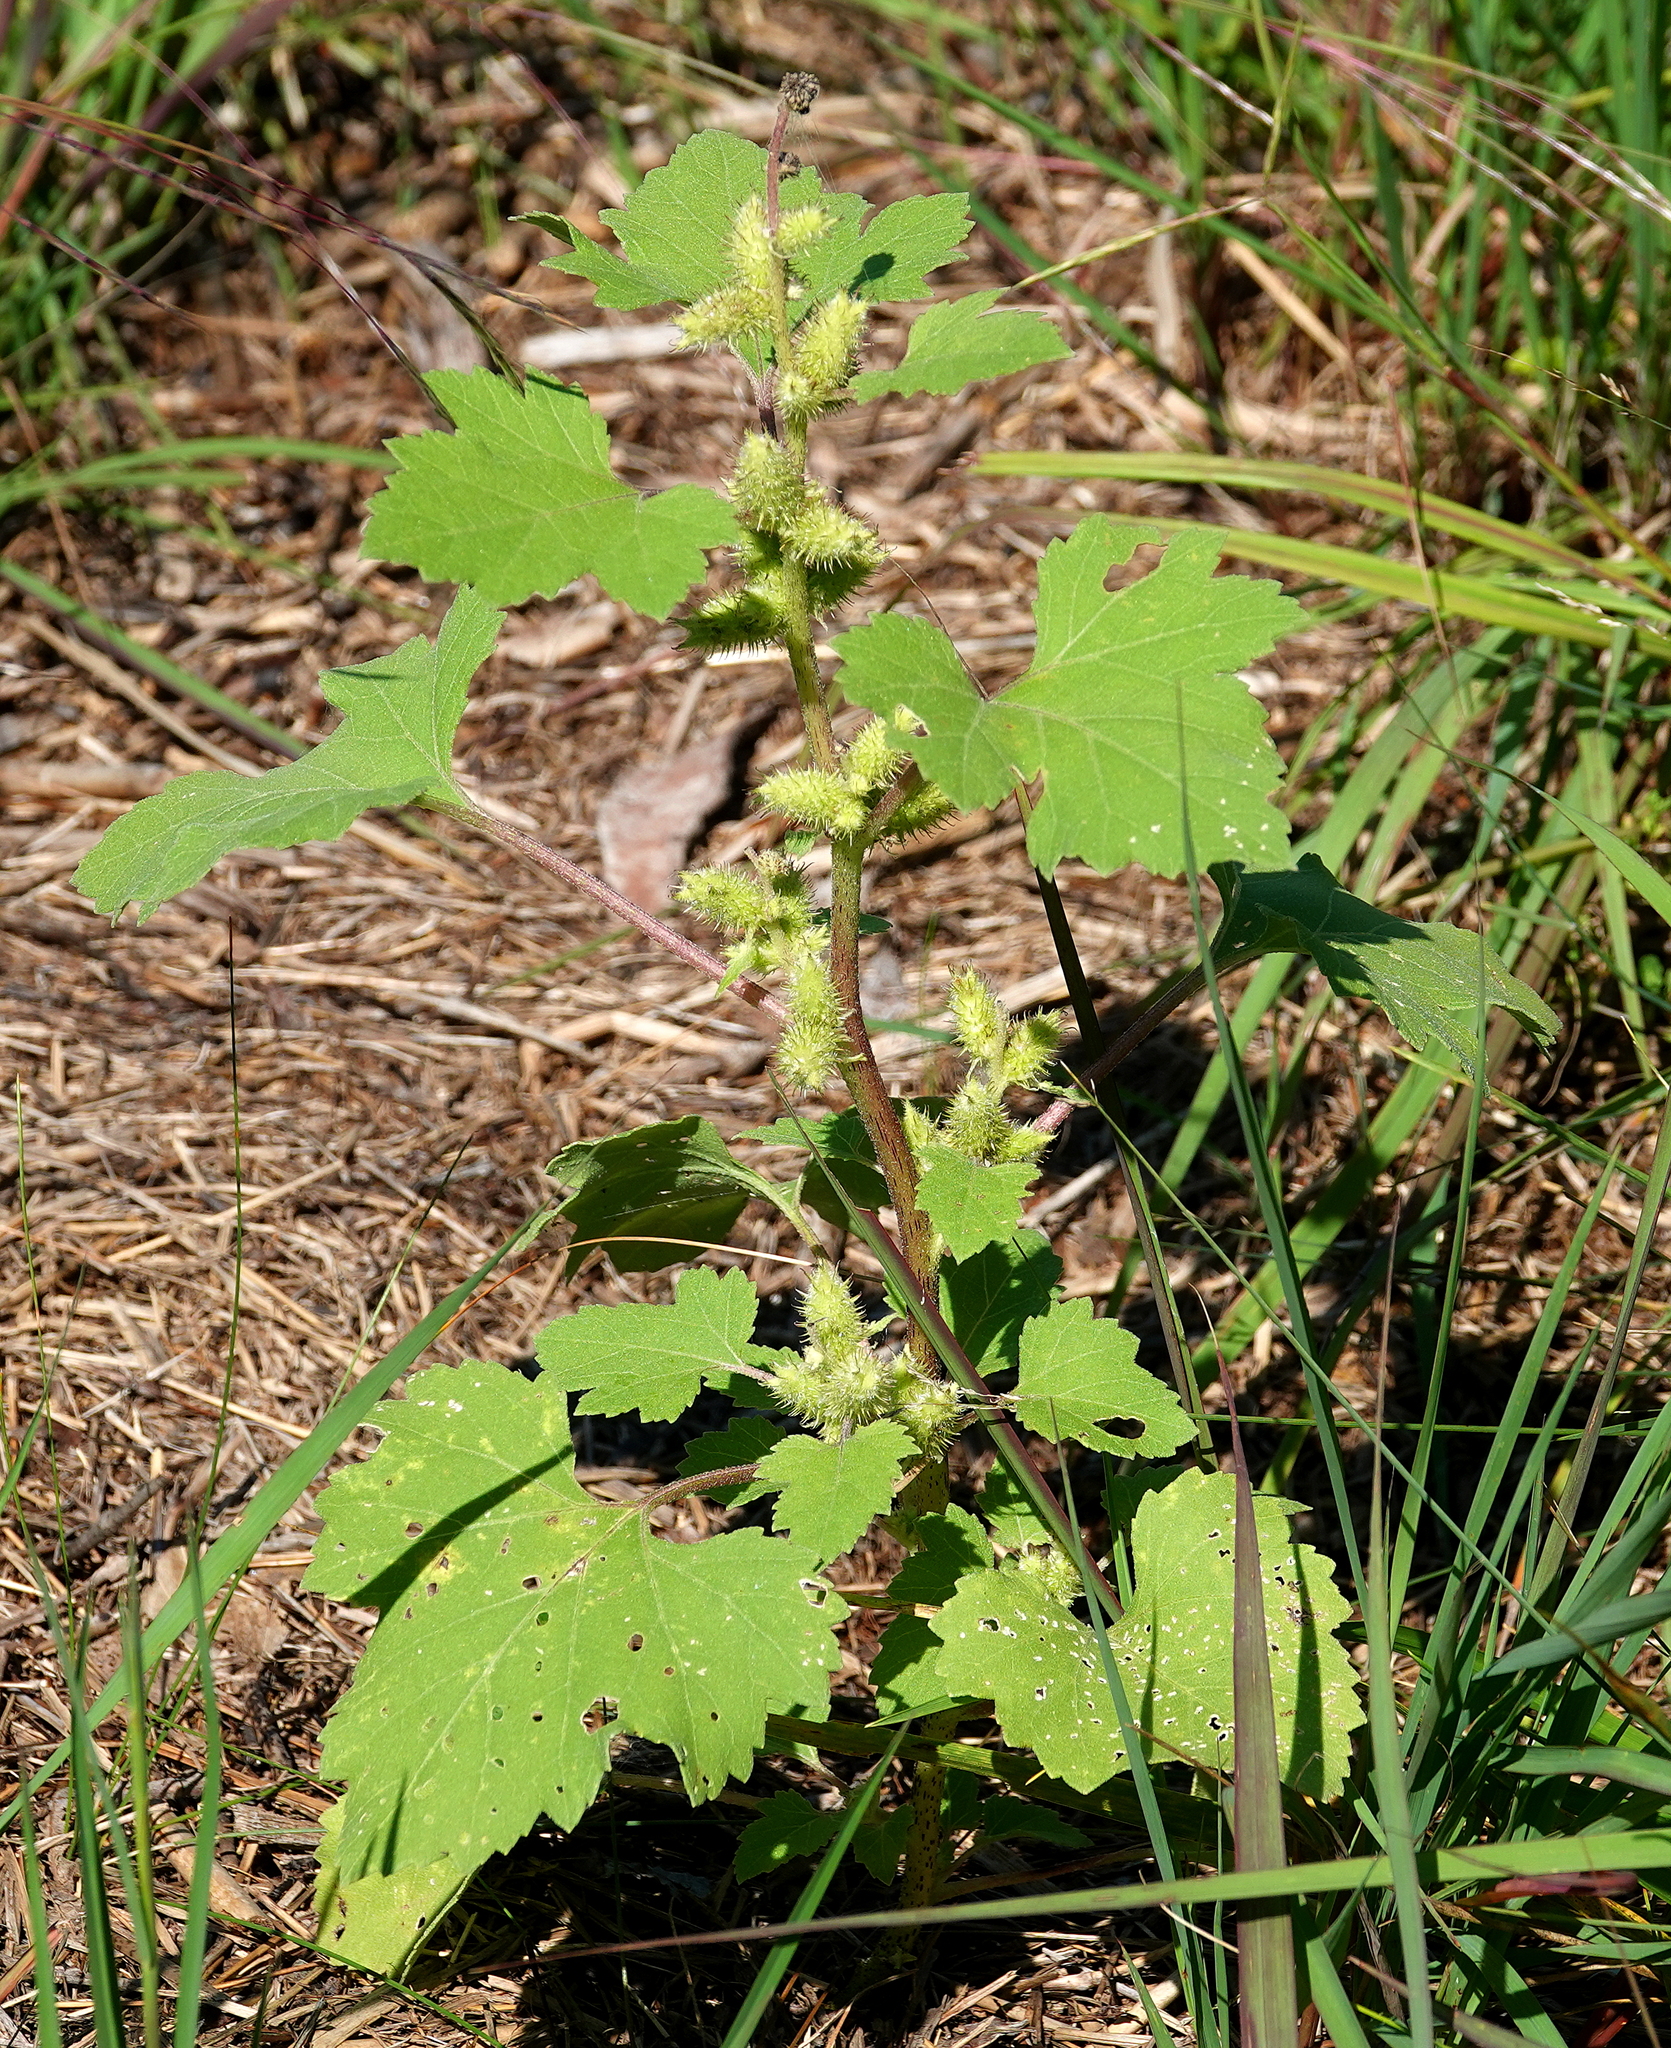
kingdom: Plantae
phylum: Tracheophyta
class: Magnoliopsida
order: Asterales
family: Asteraceae
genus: Xanthium
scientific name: Xanthium strumarium
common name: Rough cocklebur
